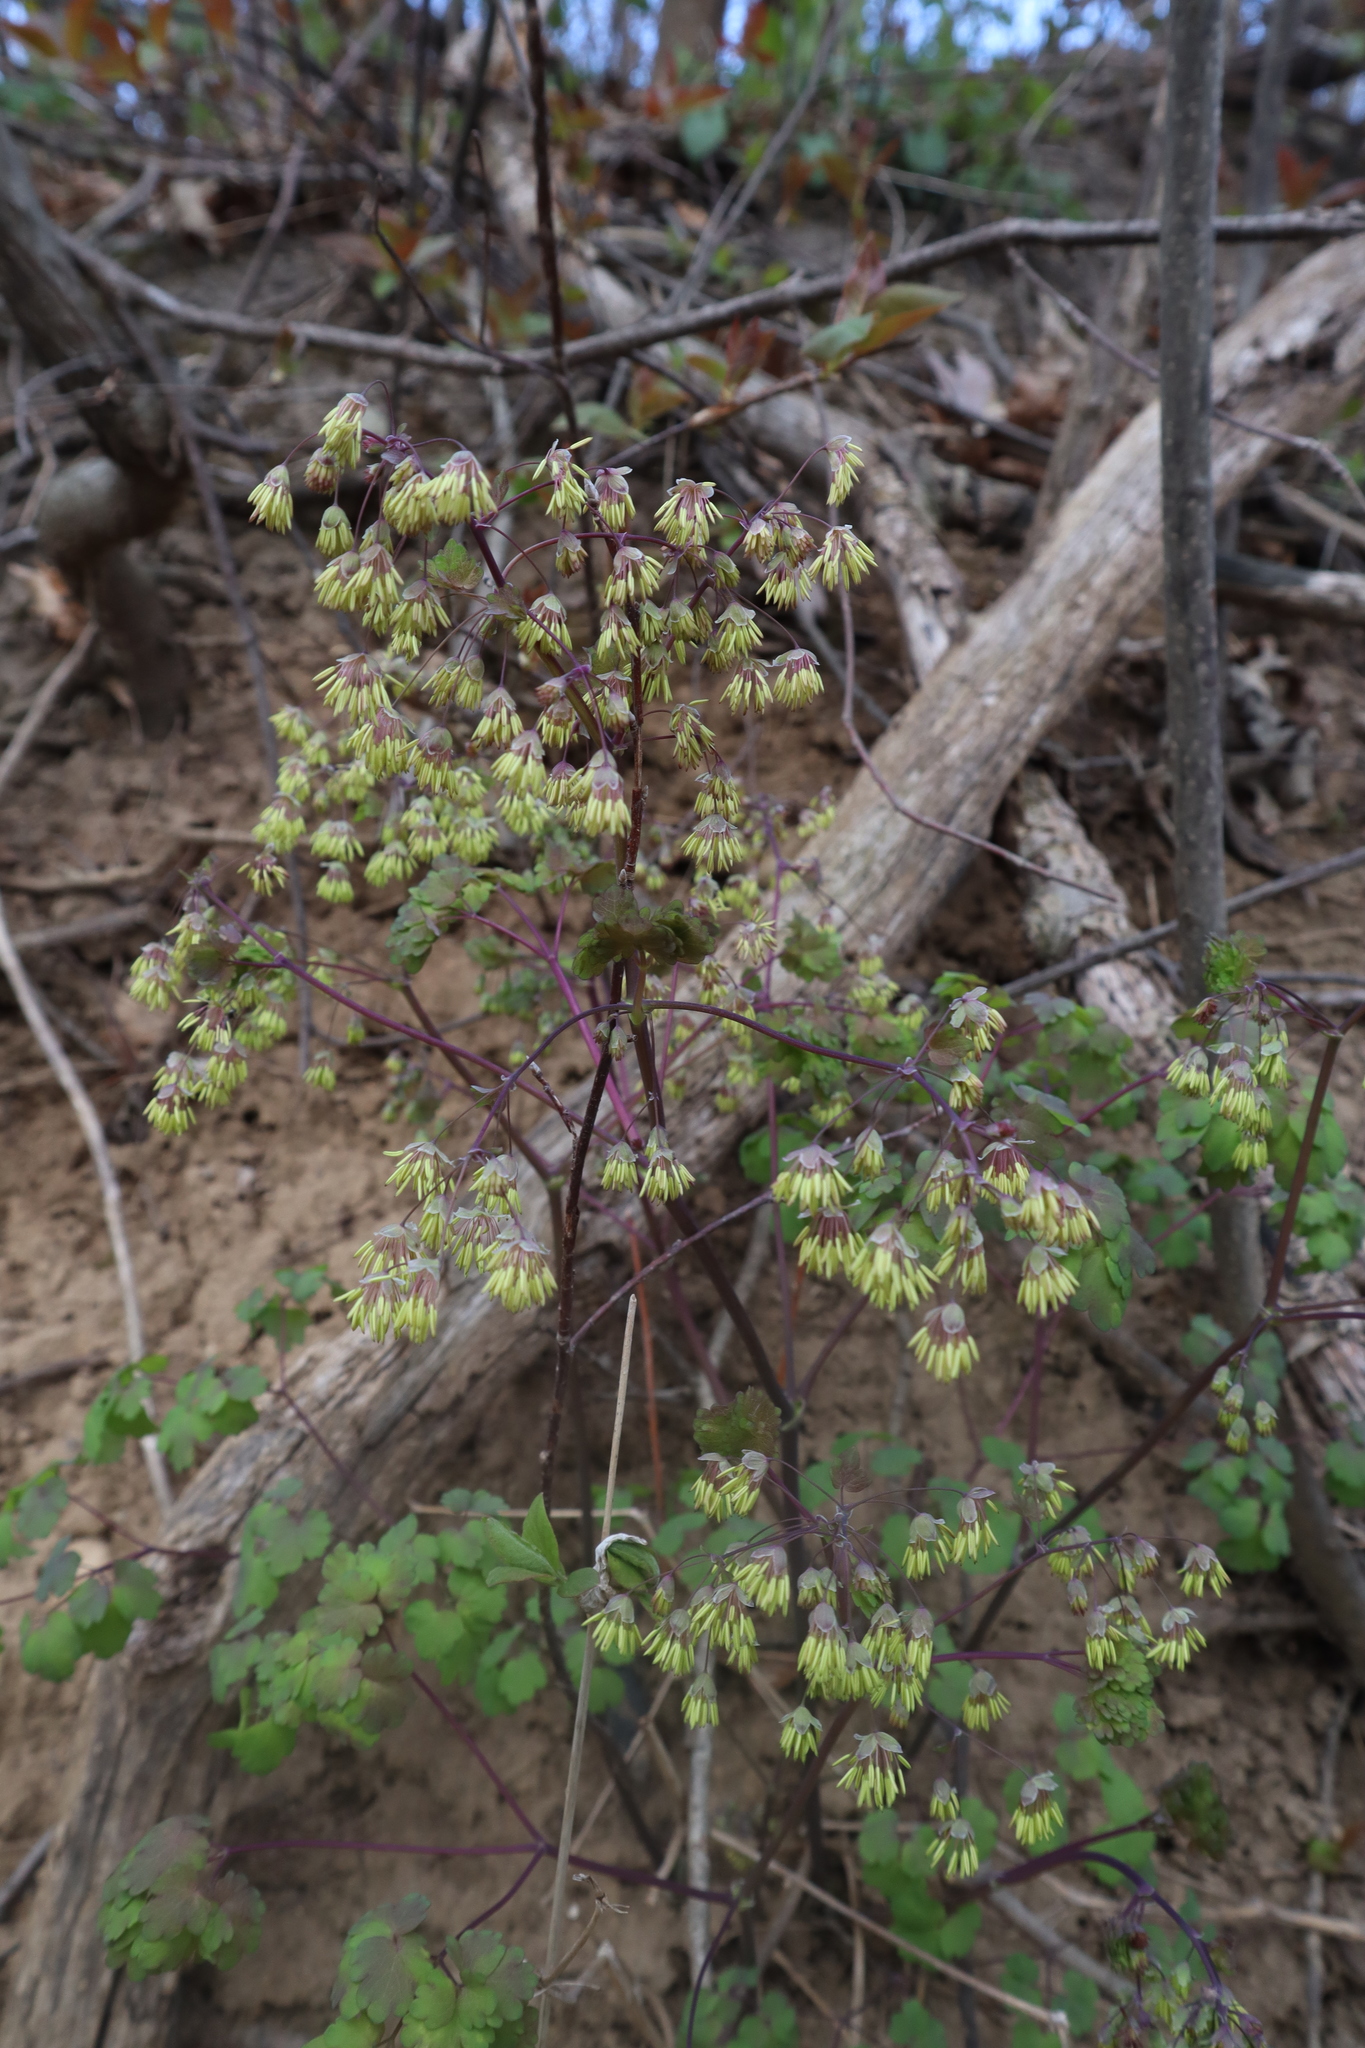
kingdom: Plantae
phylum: Tracheophyta
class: Magnoliopsida
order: Ranunculales
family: Ranunculaceae
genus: Thalictrum
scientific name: Thalictrum dioicum
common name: Early meadow-rue
